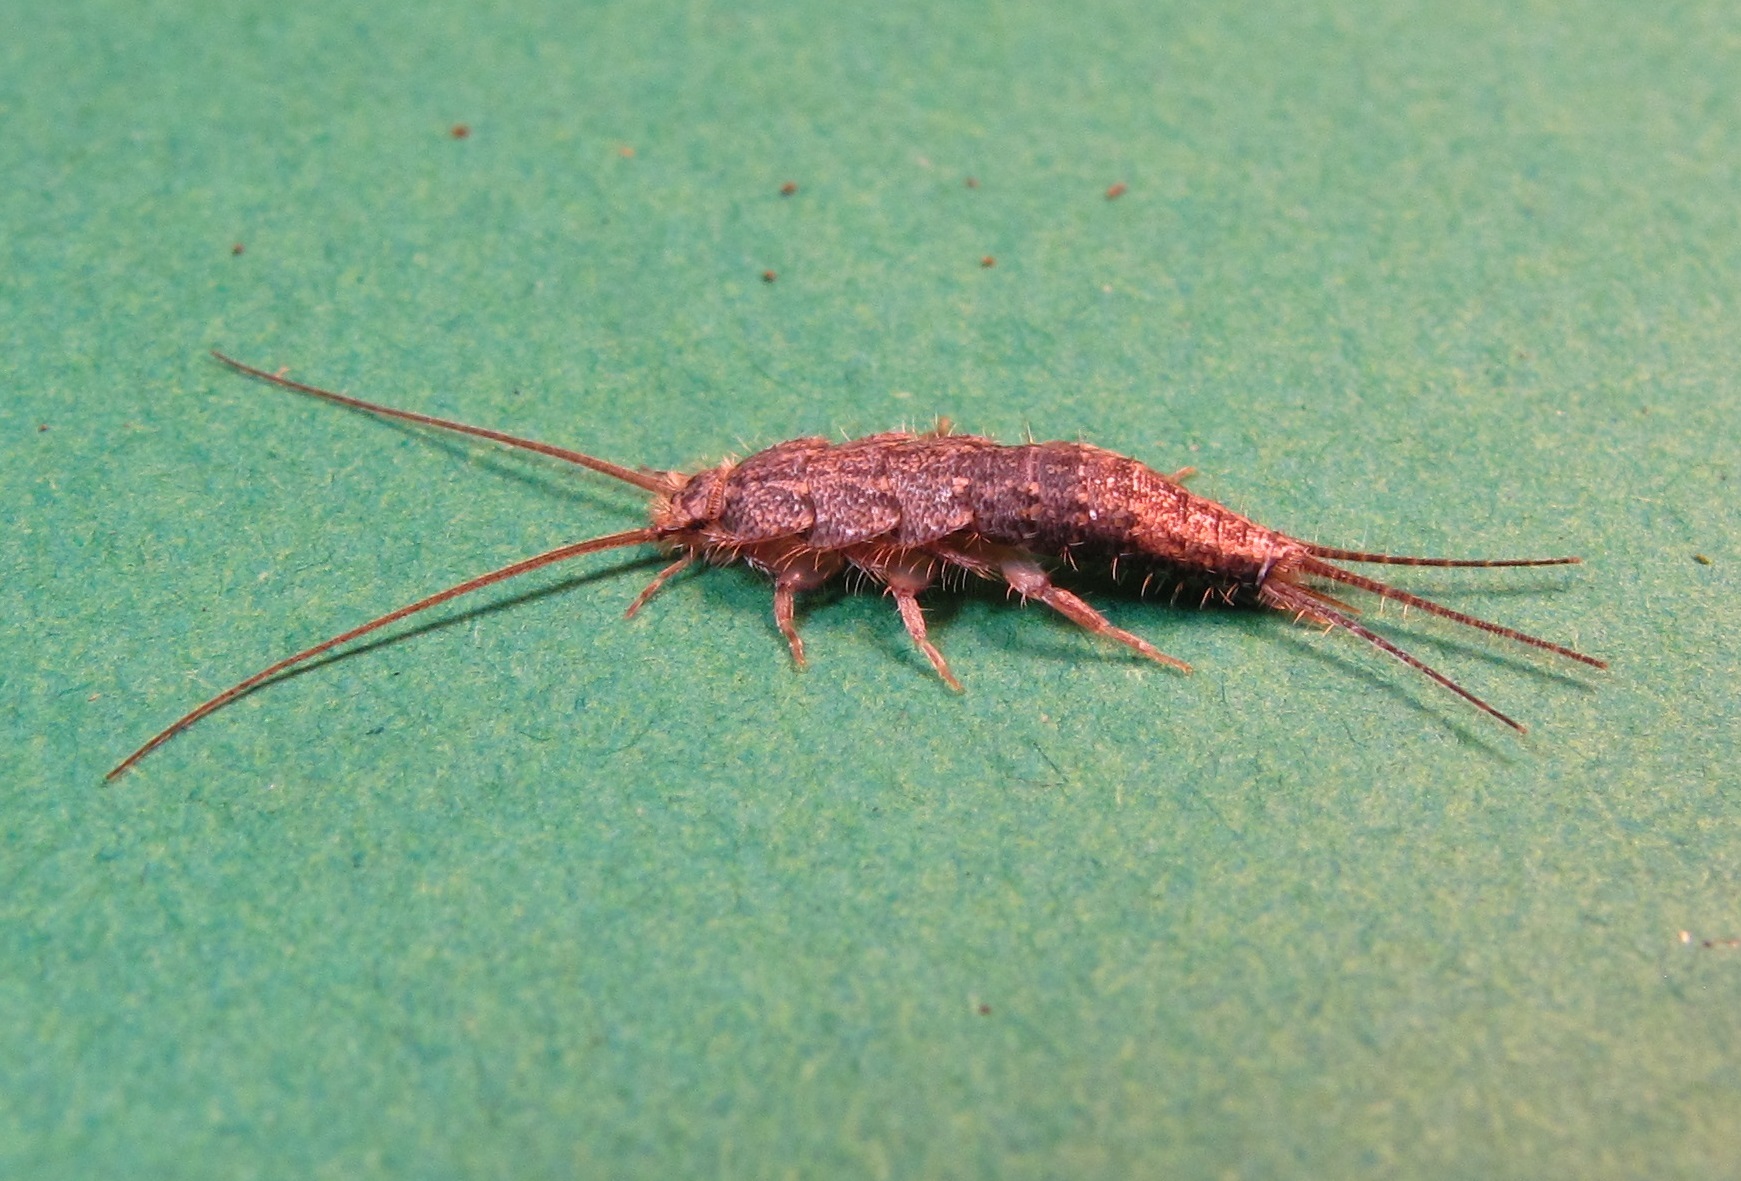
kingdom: Animalia
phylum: Arthropoda
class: Insecta
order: Zygentoma
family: Lepismatidae
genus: Ctenolepisma
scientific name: Ctenolepisma lineata
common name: Four-lined silverfish
